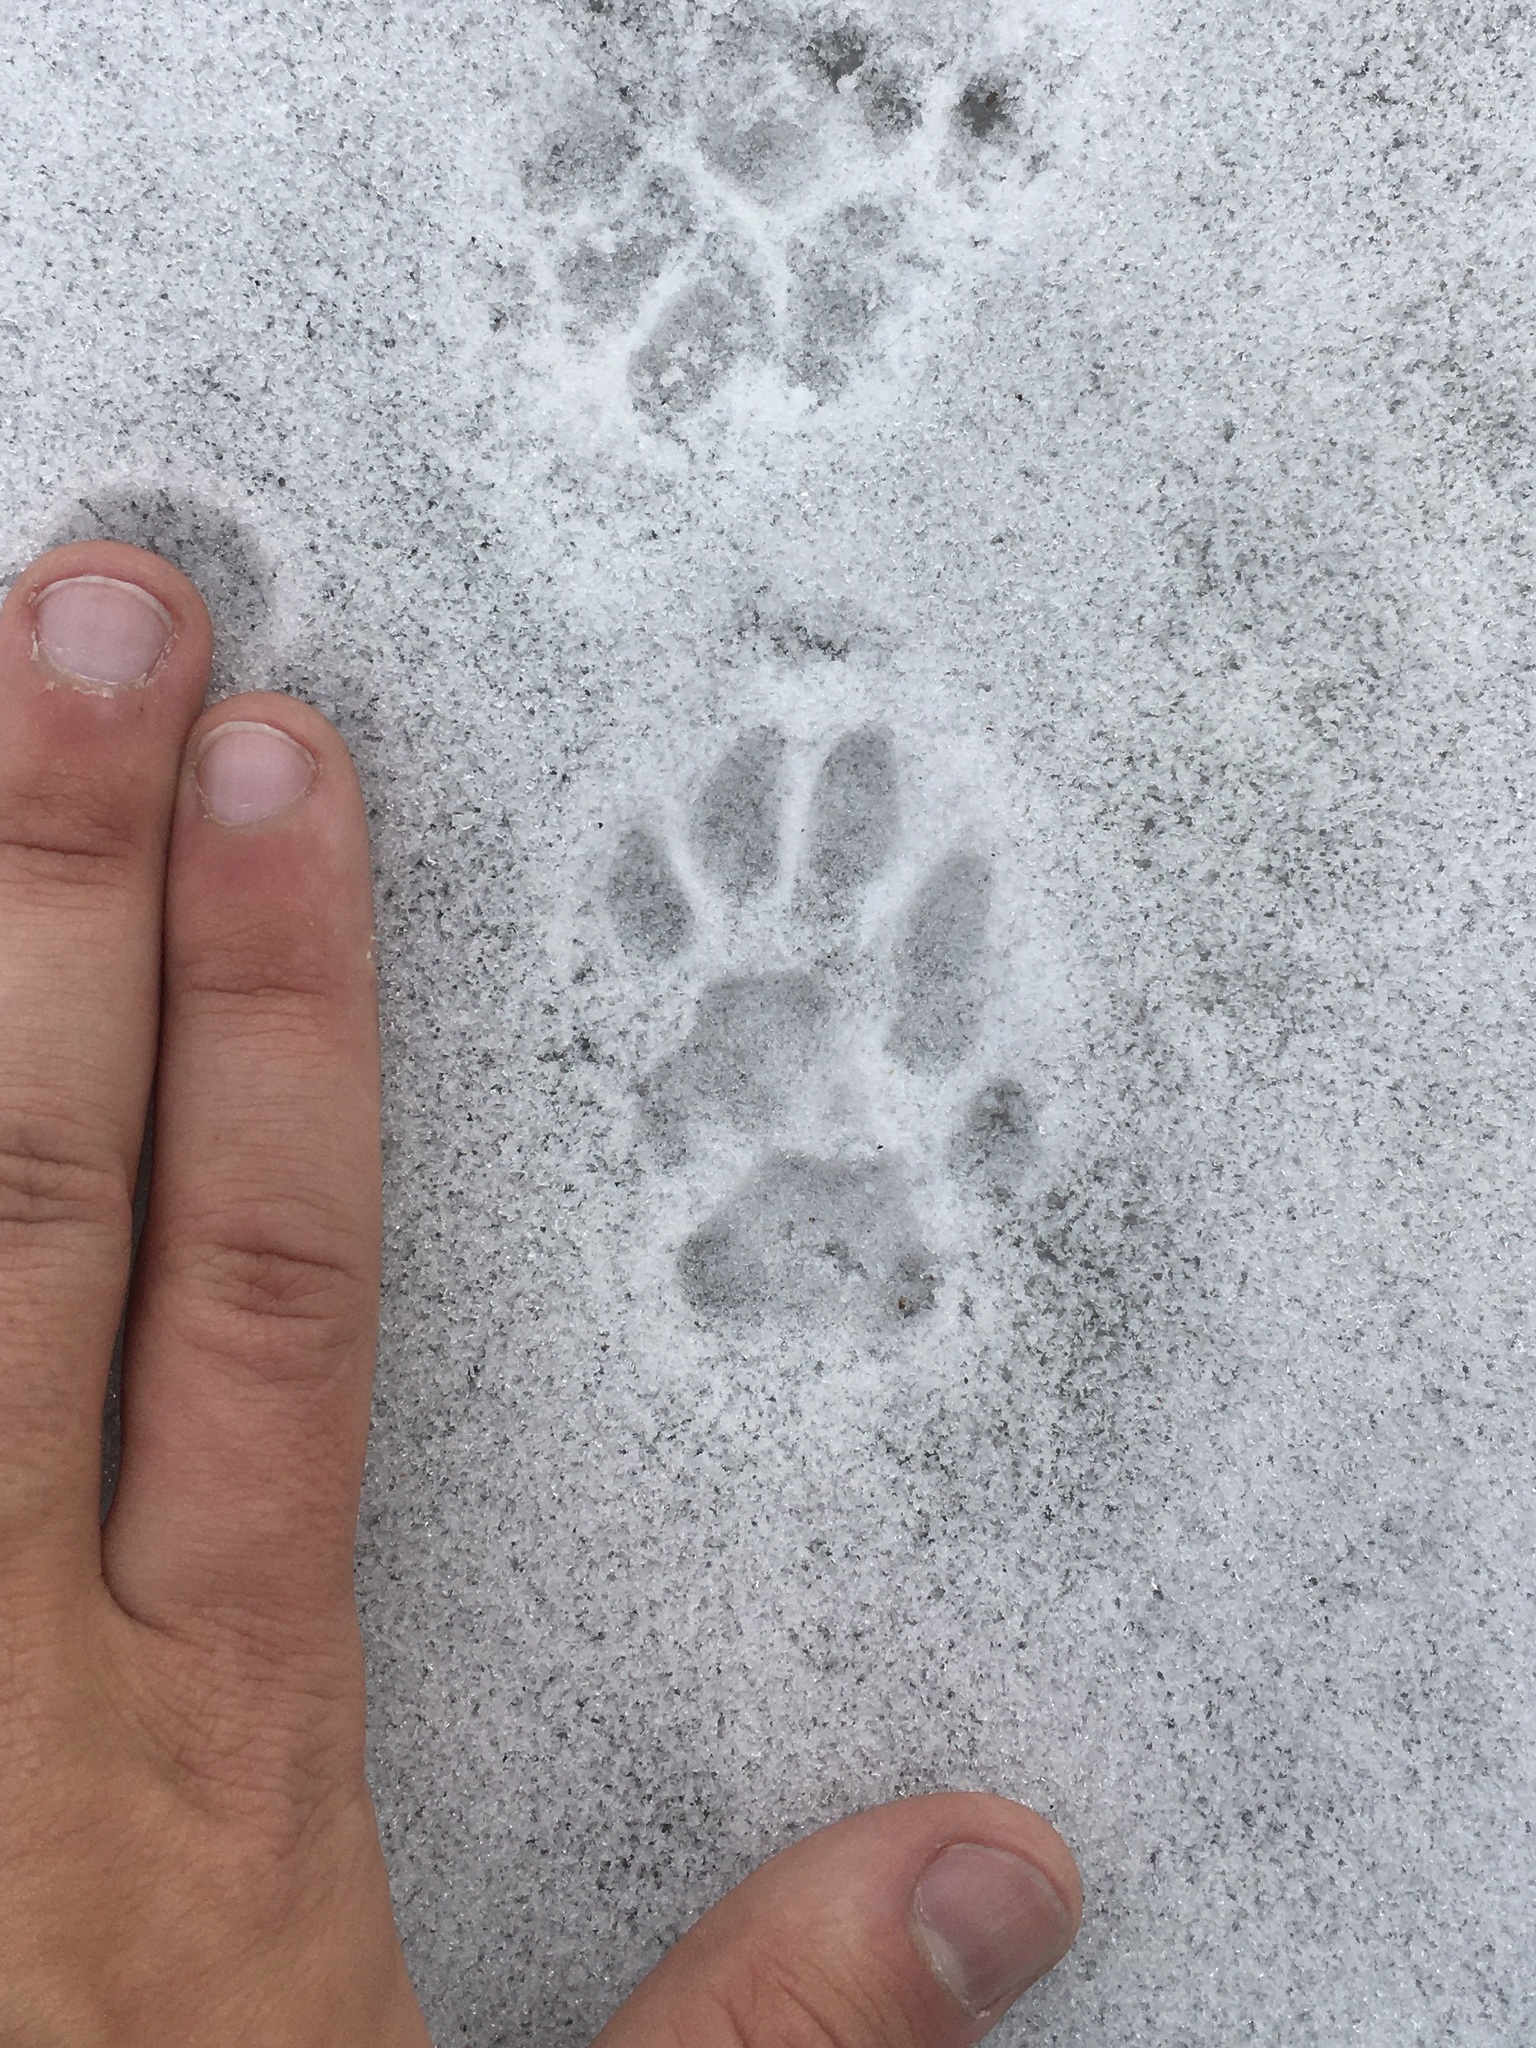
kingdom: Animalia
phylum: Chordata
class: Mammalia
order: Carnivora
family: Felidae
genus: Felis
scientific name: Felis catus
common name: Domestic cat
